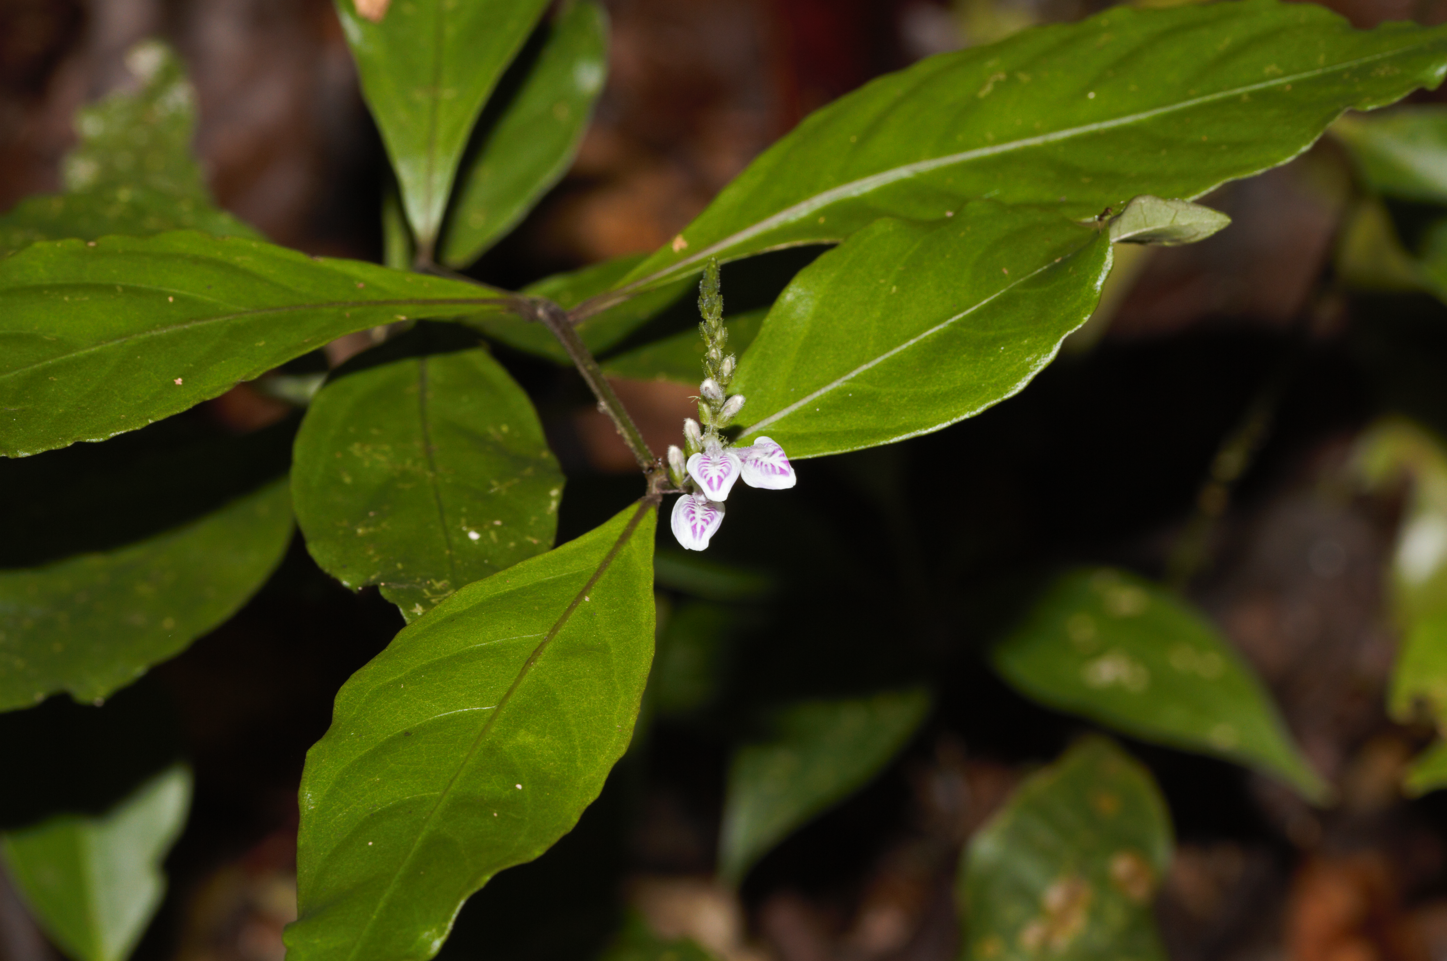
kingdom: Plantae
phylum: Tracheophyta
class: Magnoliopsida
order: Lamiales
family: Acanthaceae
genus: Justicia
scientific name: Justicia prevostiae
